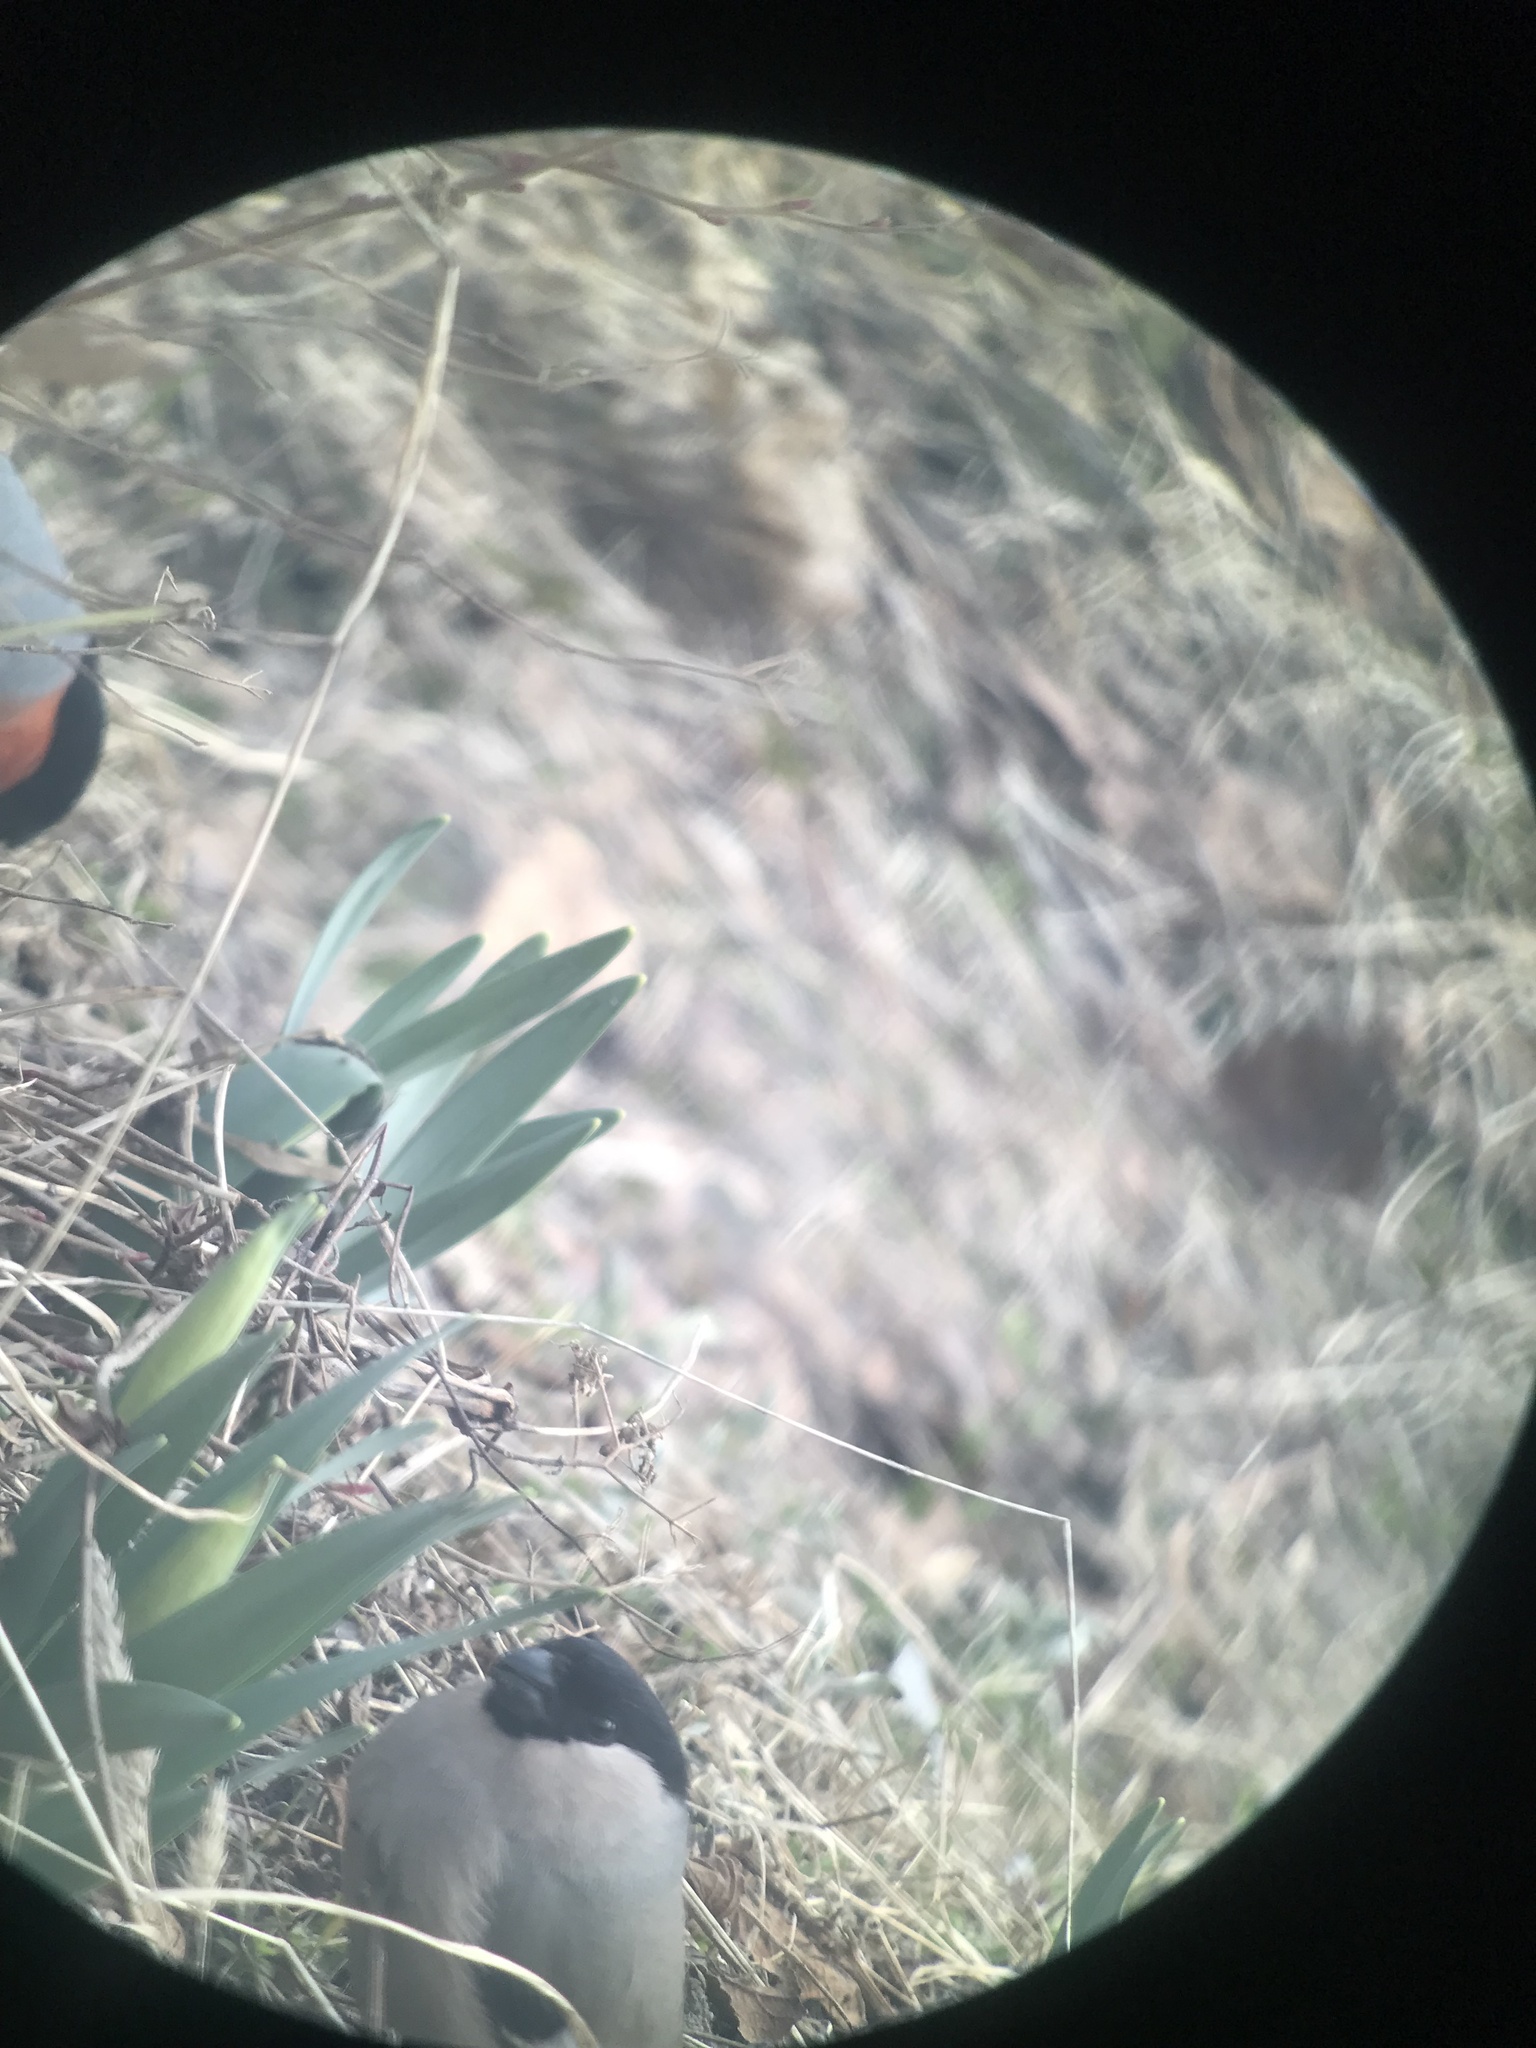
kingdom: Animalia
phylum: Chordata
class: Aves
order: Passeriformes
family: Fringillidae
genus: Pyrrhula
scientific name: Pyrrhula pyrrhula
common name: Eurasian bullfinch
